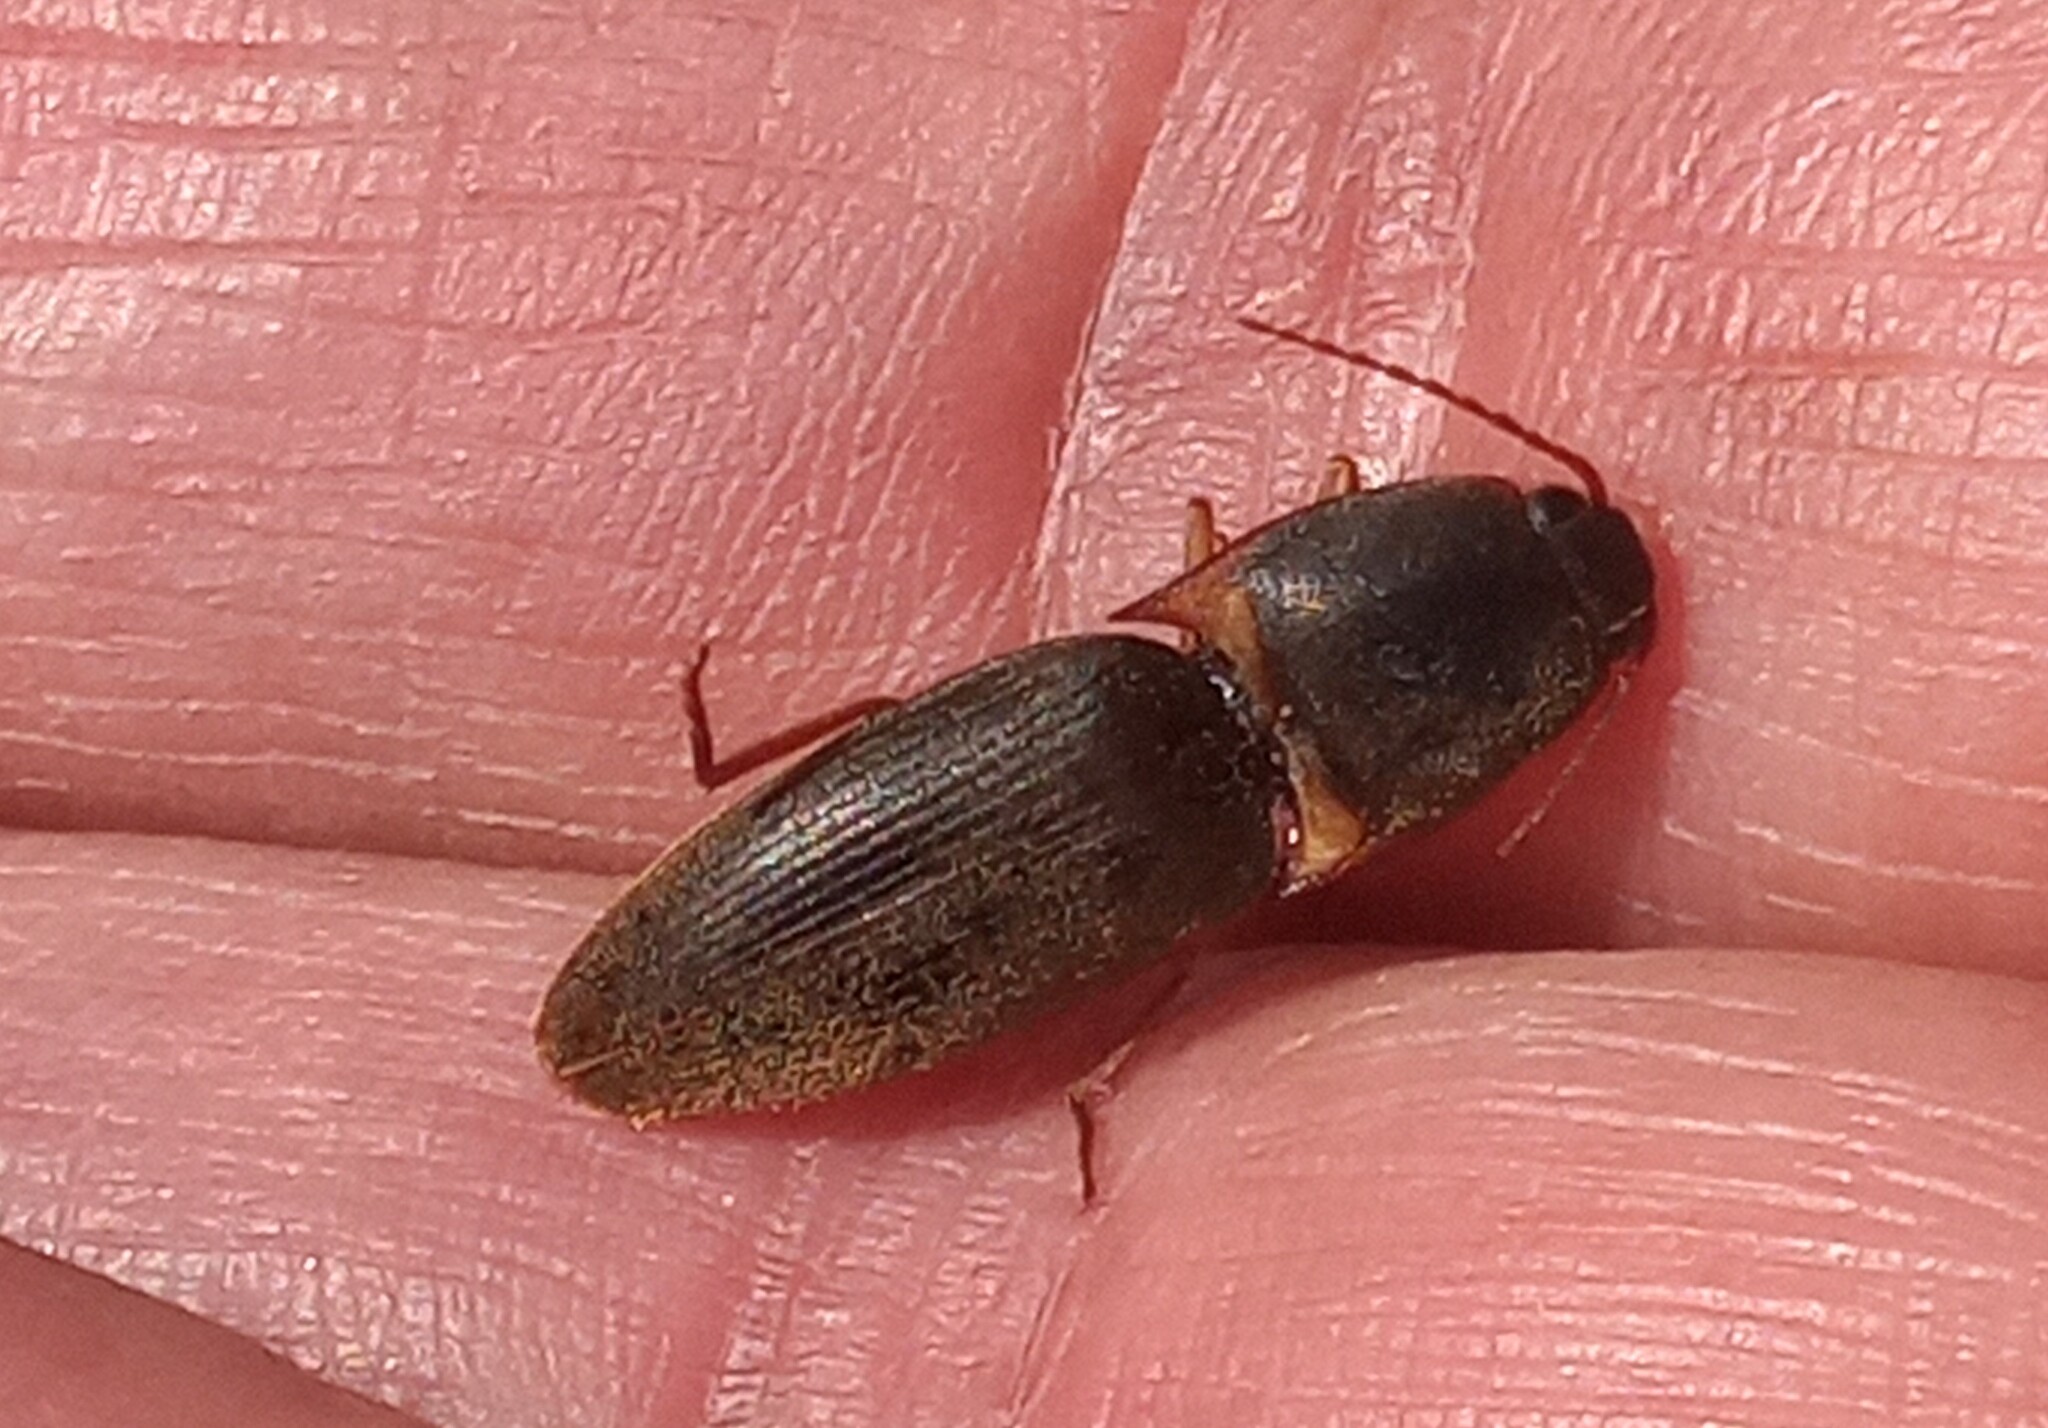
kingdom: Animalia
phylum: Arthropoda
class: Insecta
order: Coleoptera
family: Elateridae
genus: Monocrepidius
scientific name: Monocrepidius
